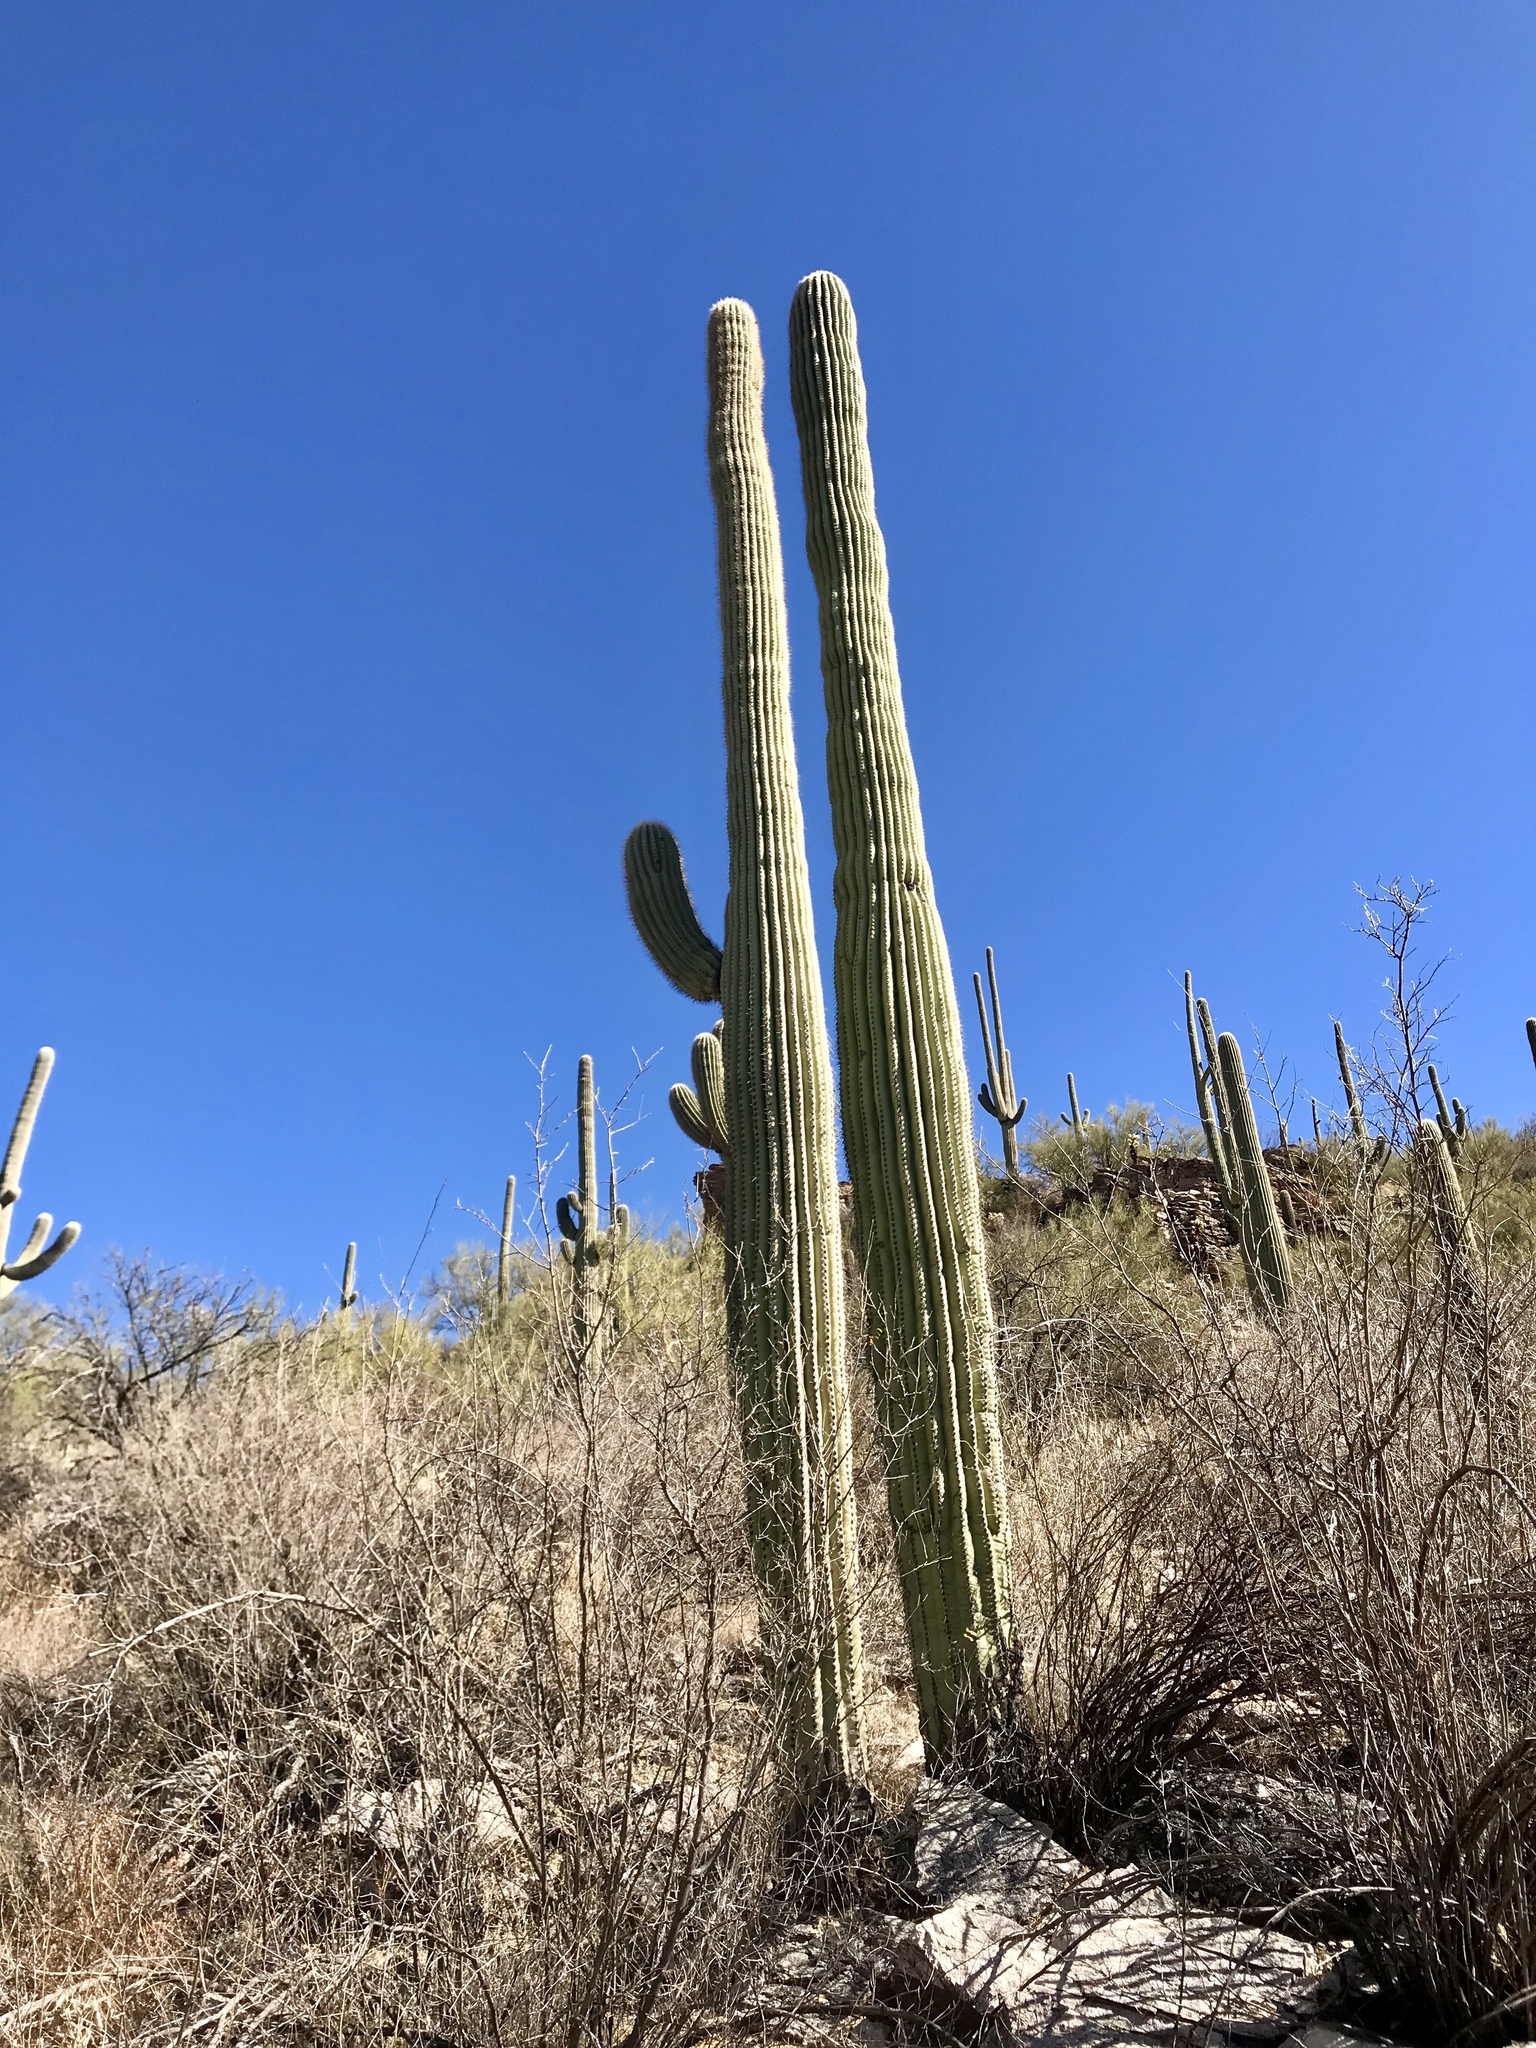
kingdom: Plantae
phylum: Tracheophyta
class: Magnoliopsida
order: Caryophyllales
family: Cactaceae
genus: Carnegiea
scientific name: Carnegiea gigantea
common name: Saguaro
